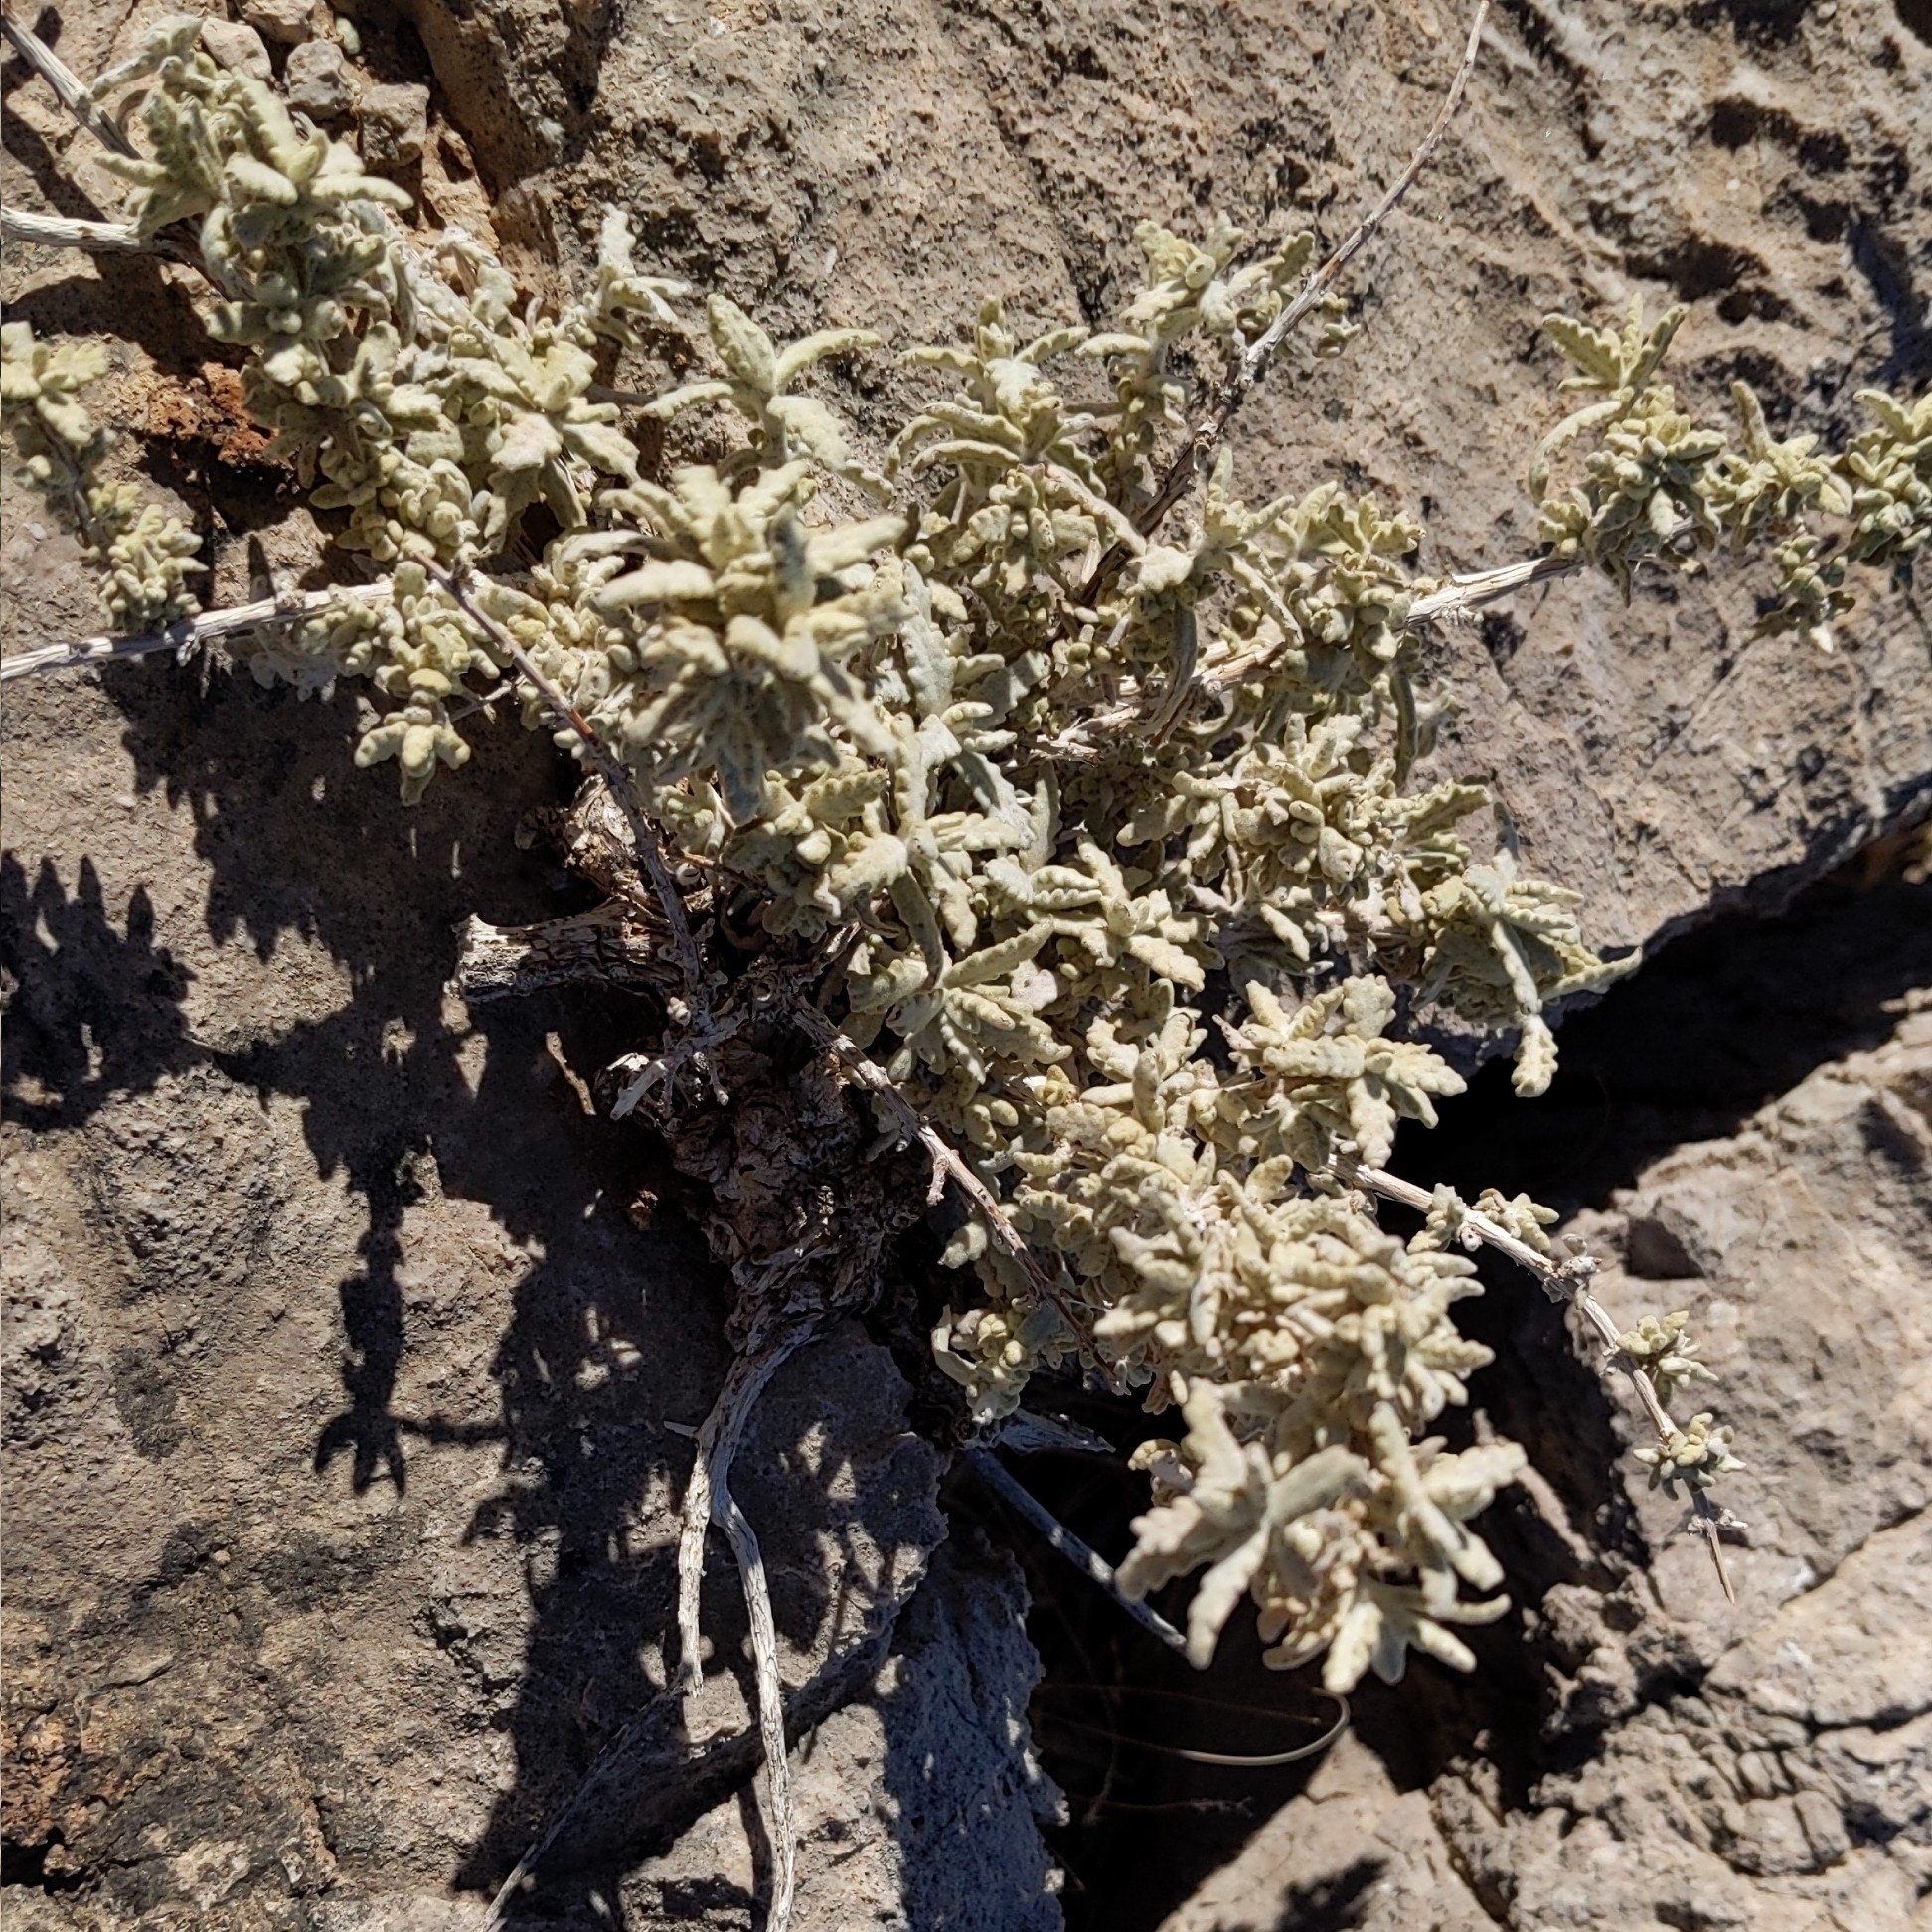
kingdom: Plantae
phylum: Tracheophyta
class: Magnoliopsida
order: Lamiales
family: Scrophulariaceae
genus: Buddleja
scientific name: Buddleja utahensis
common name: Utah butterfly-bush
